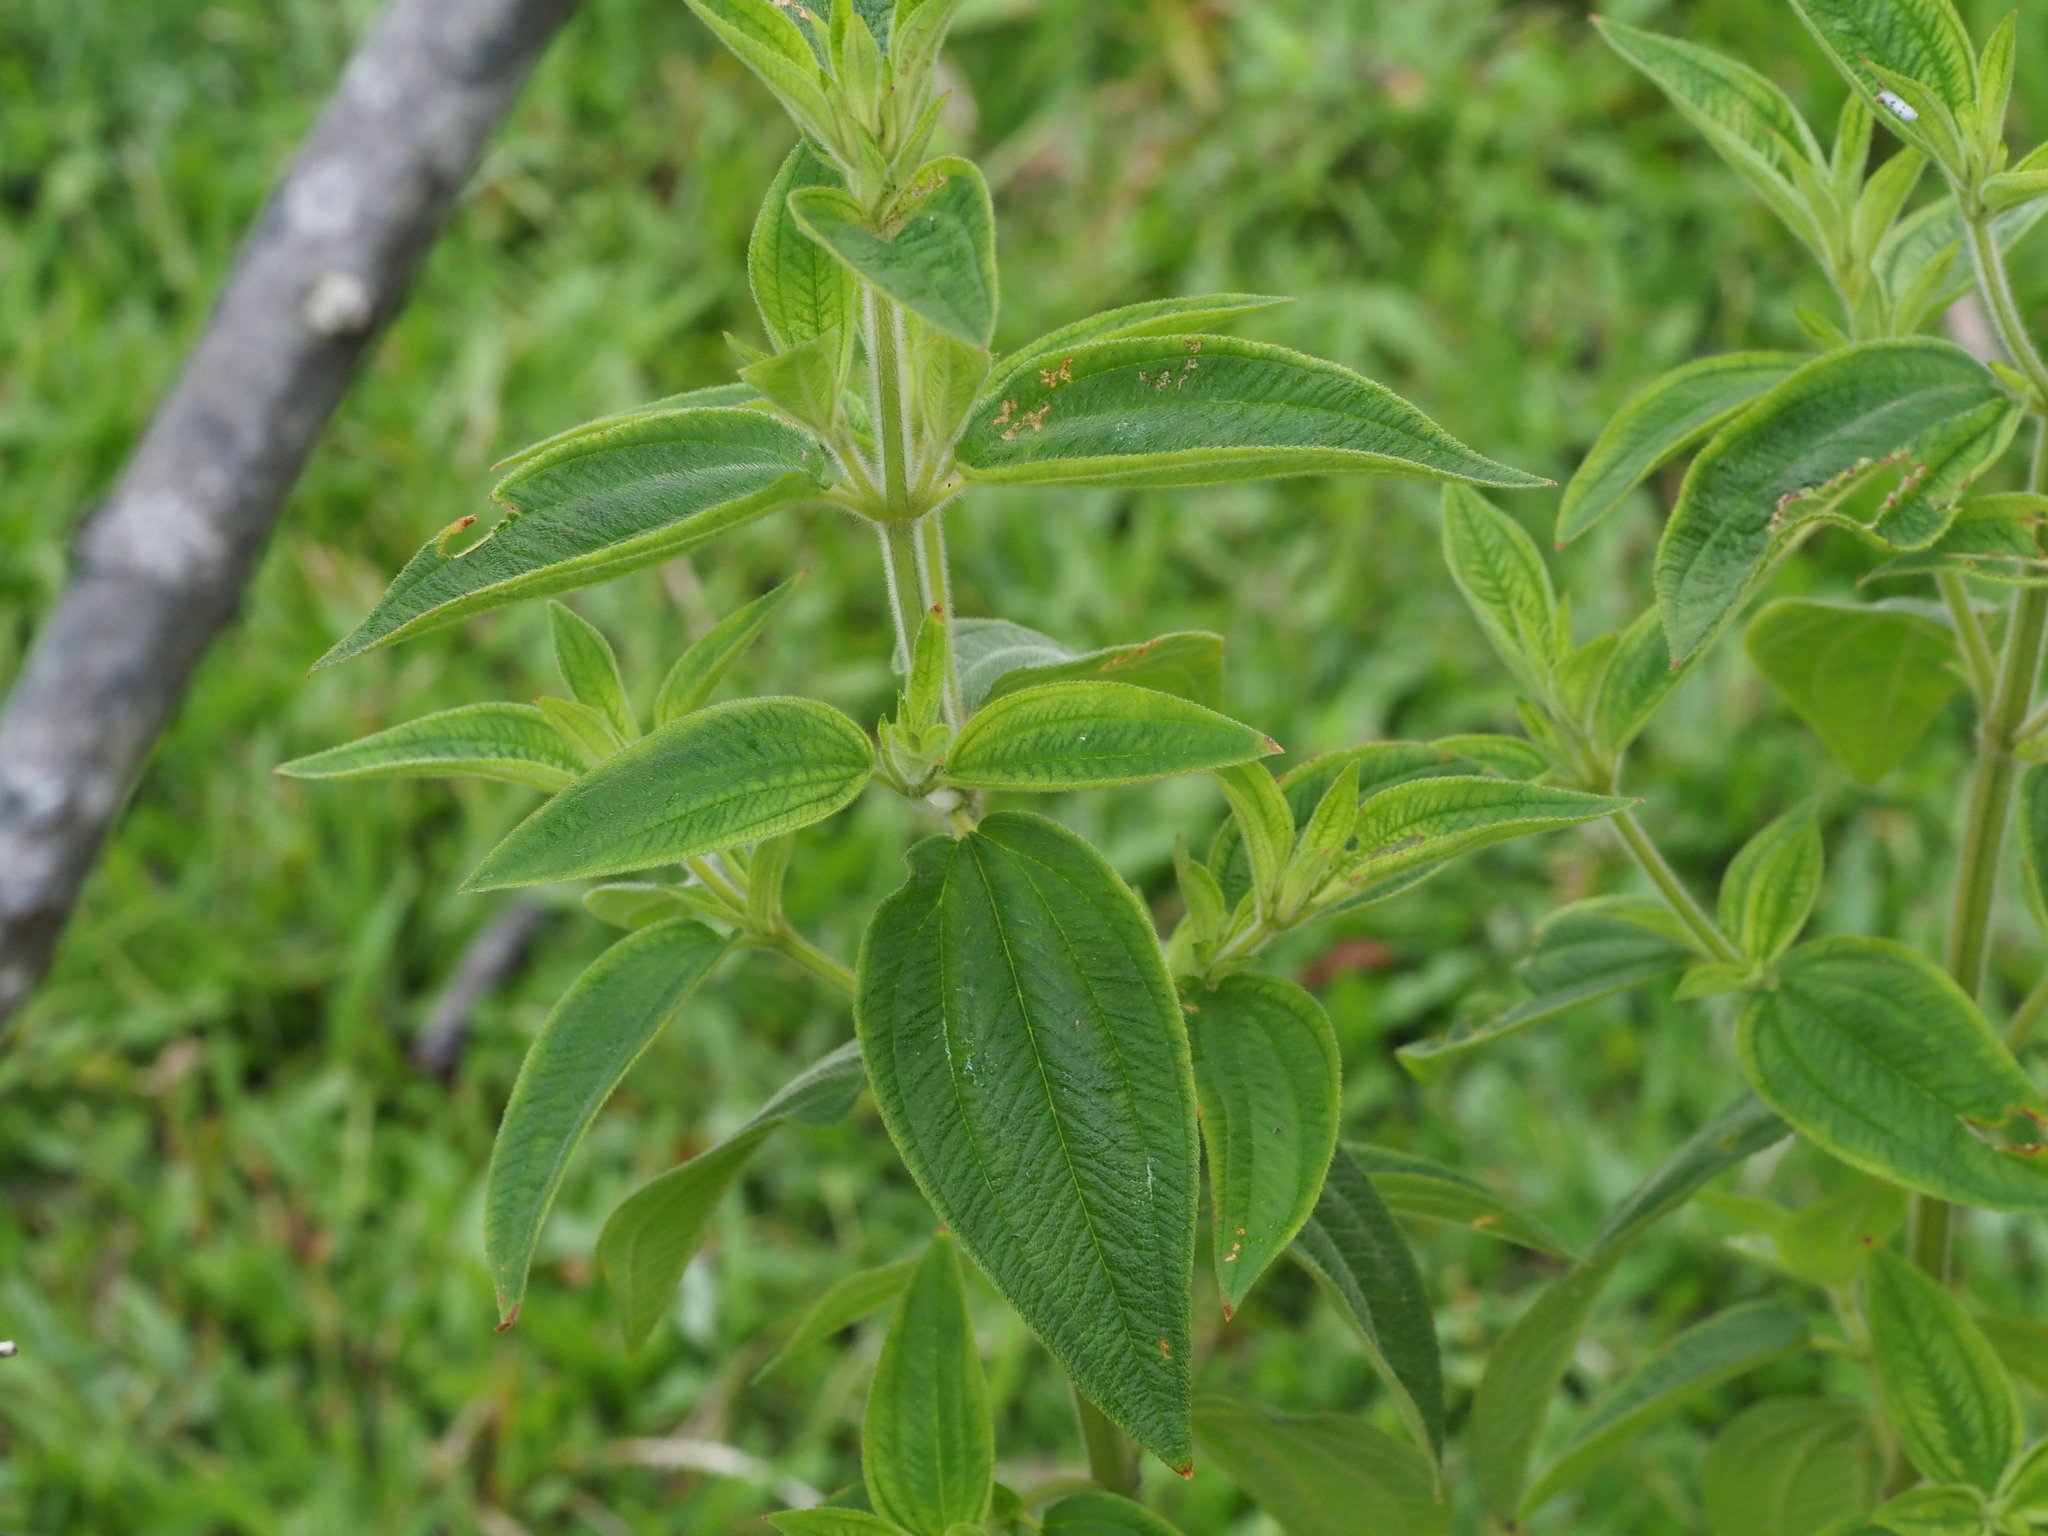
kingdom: Plantae
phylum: Tracheophyta
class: Magnoliopsida
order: Myrtales
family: Melastomataceae
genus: Chaetogastra
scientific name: Chaetogastra herbacea
